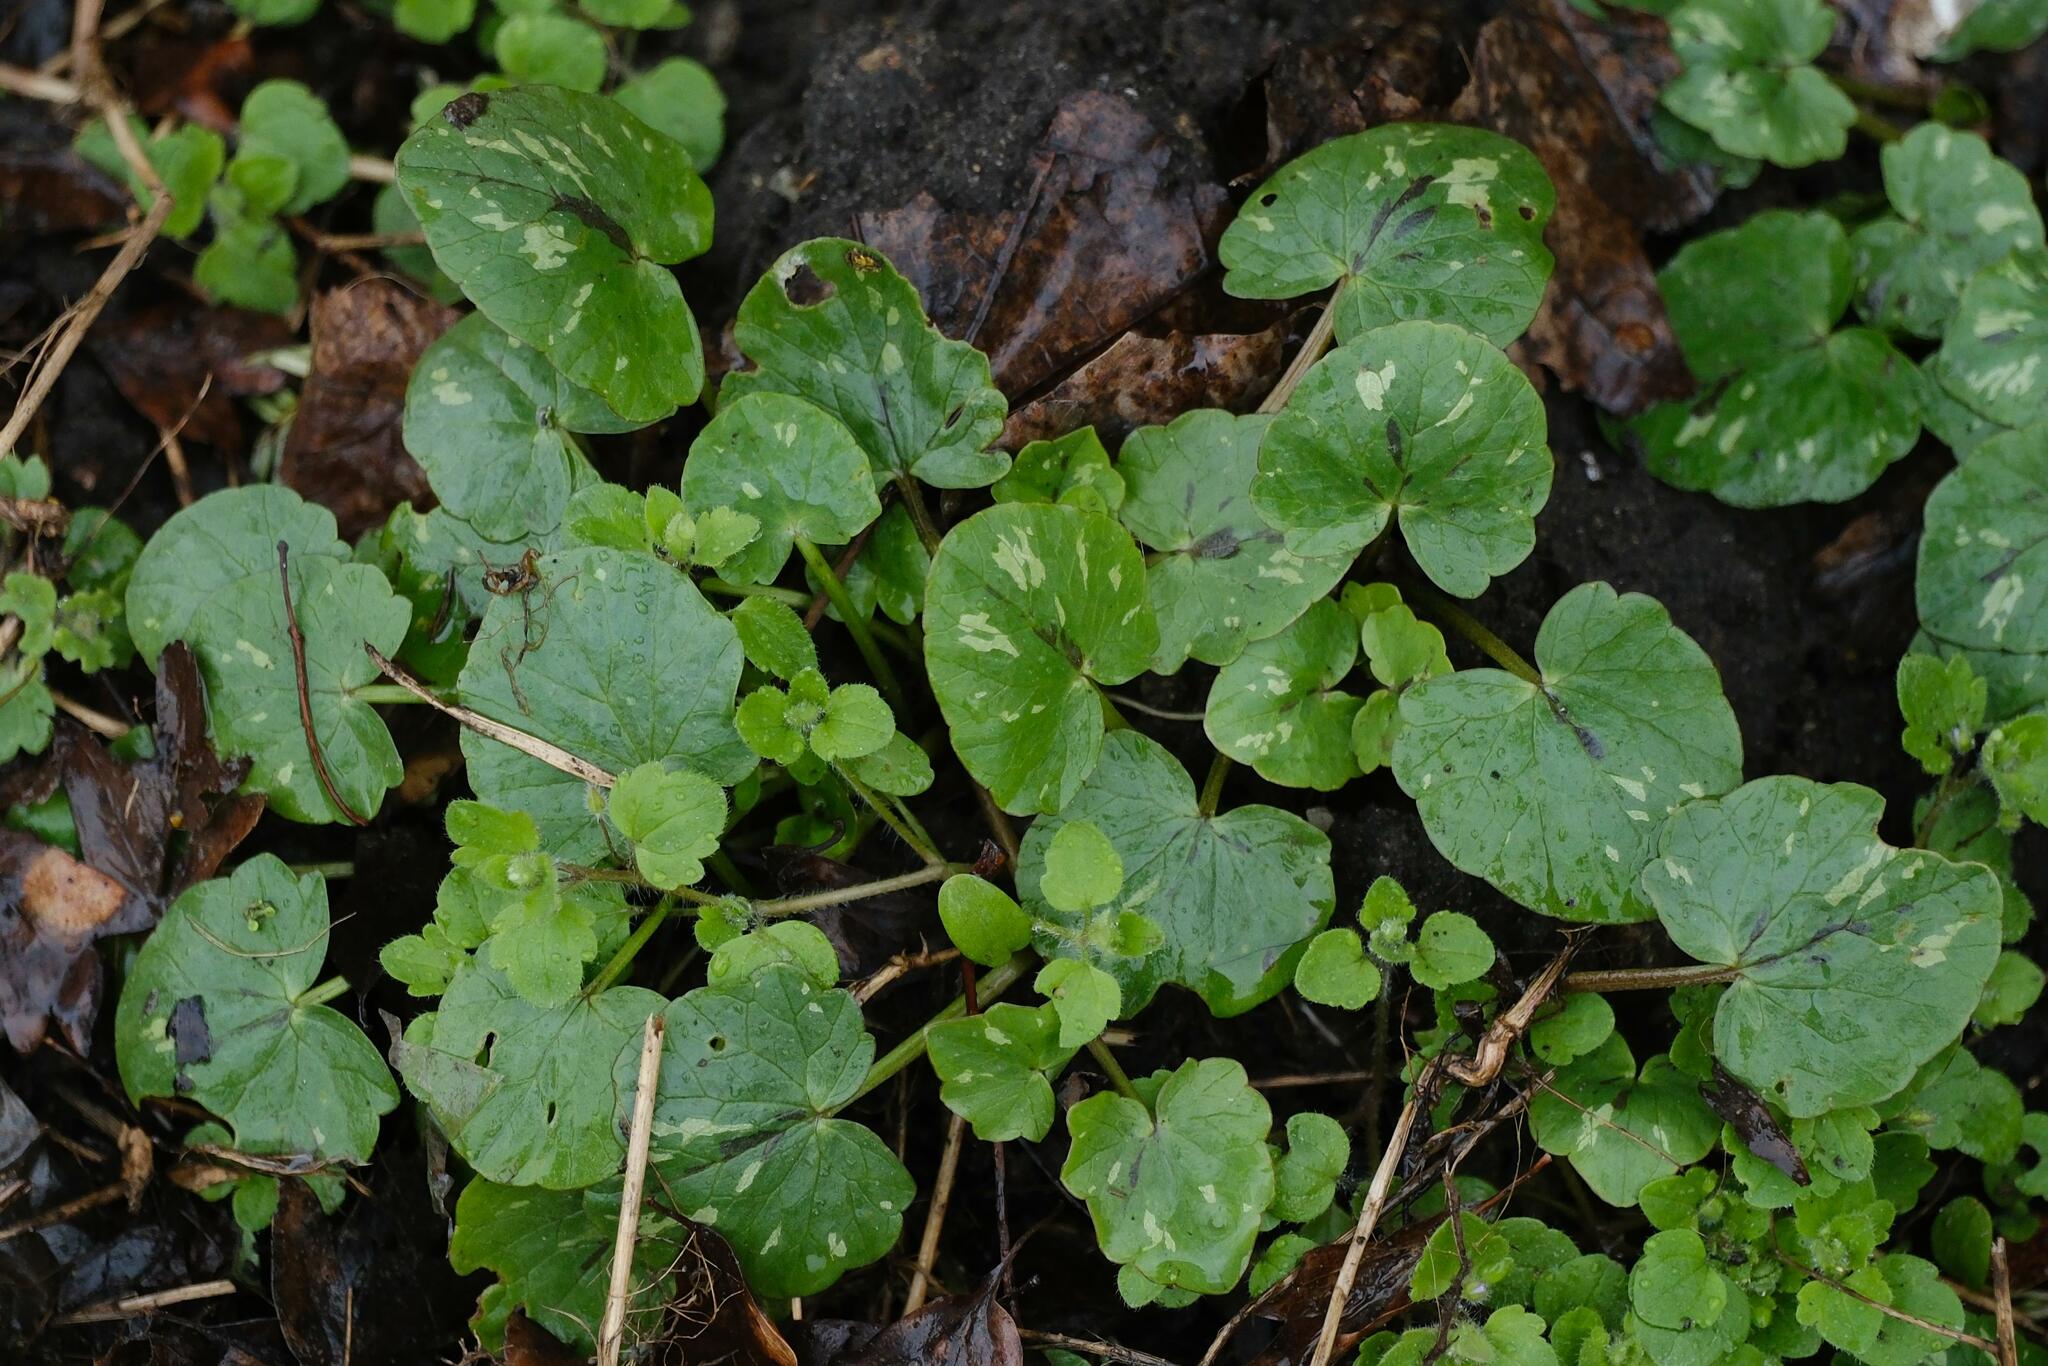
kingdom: Plantae
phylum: Tracheophyta
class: Magnoliopsida
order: Ranunculales
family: Ranunculaceae
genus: Ficaria
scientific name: Ficaria verna
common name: Lesser celandine
